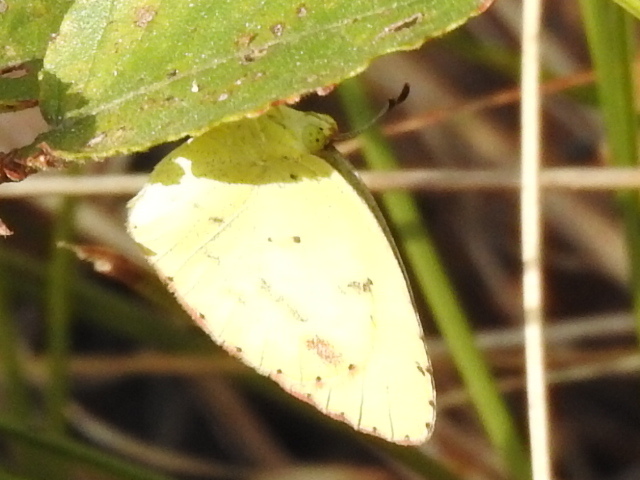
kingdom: Animalia
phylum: Arthropoda
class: Insecta
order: Lepidoptera
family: Pieridae
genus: Pyrisitia
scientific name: Pyrisitia lisa
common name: Little yellow
